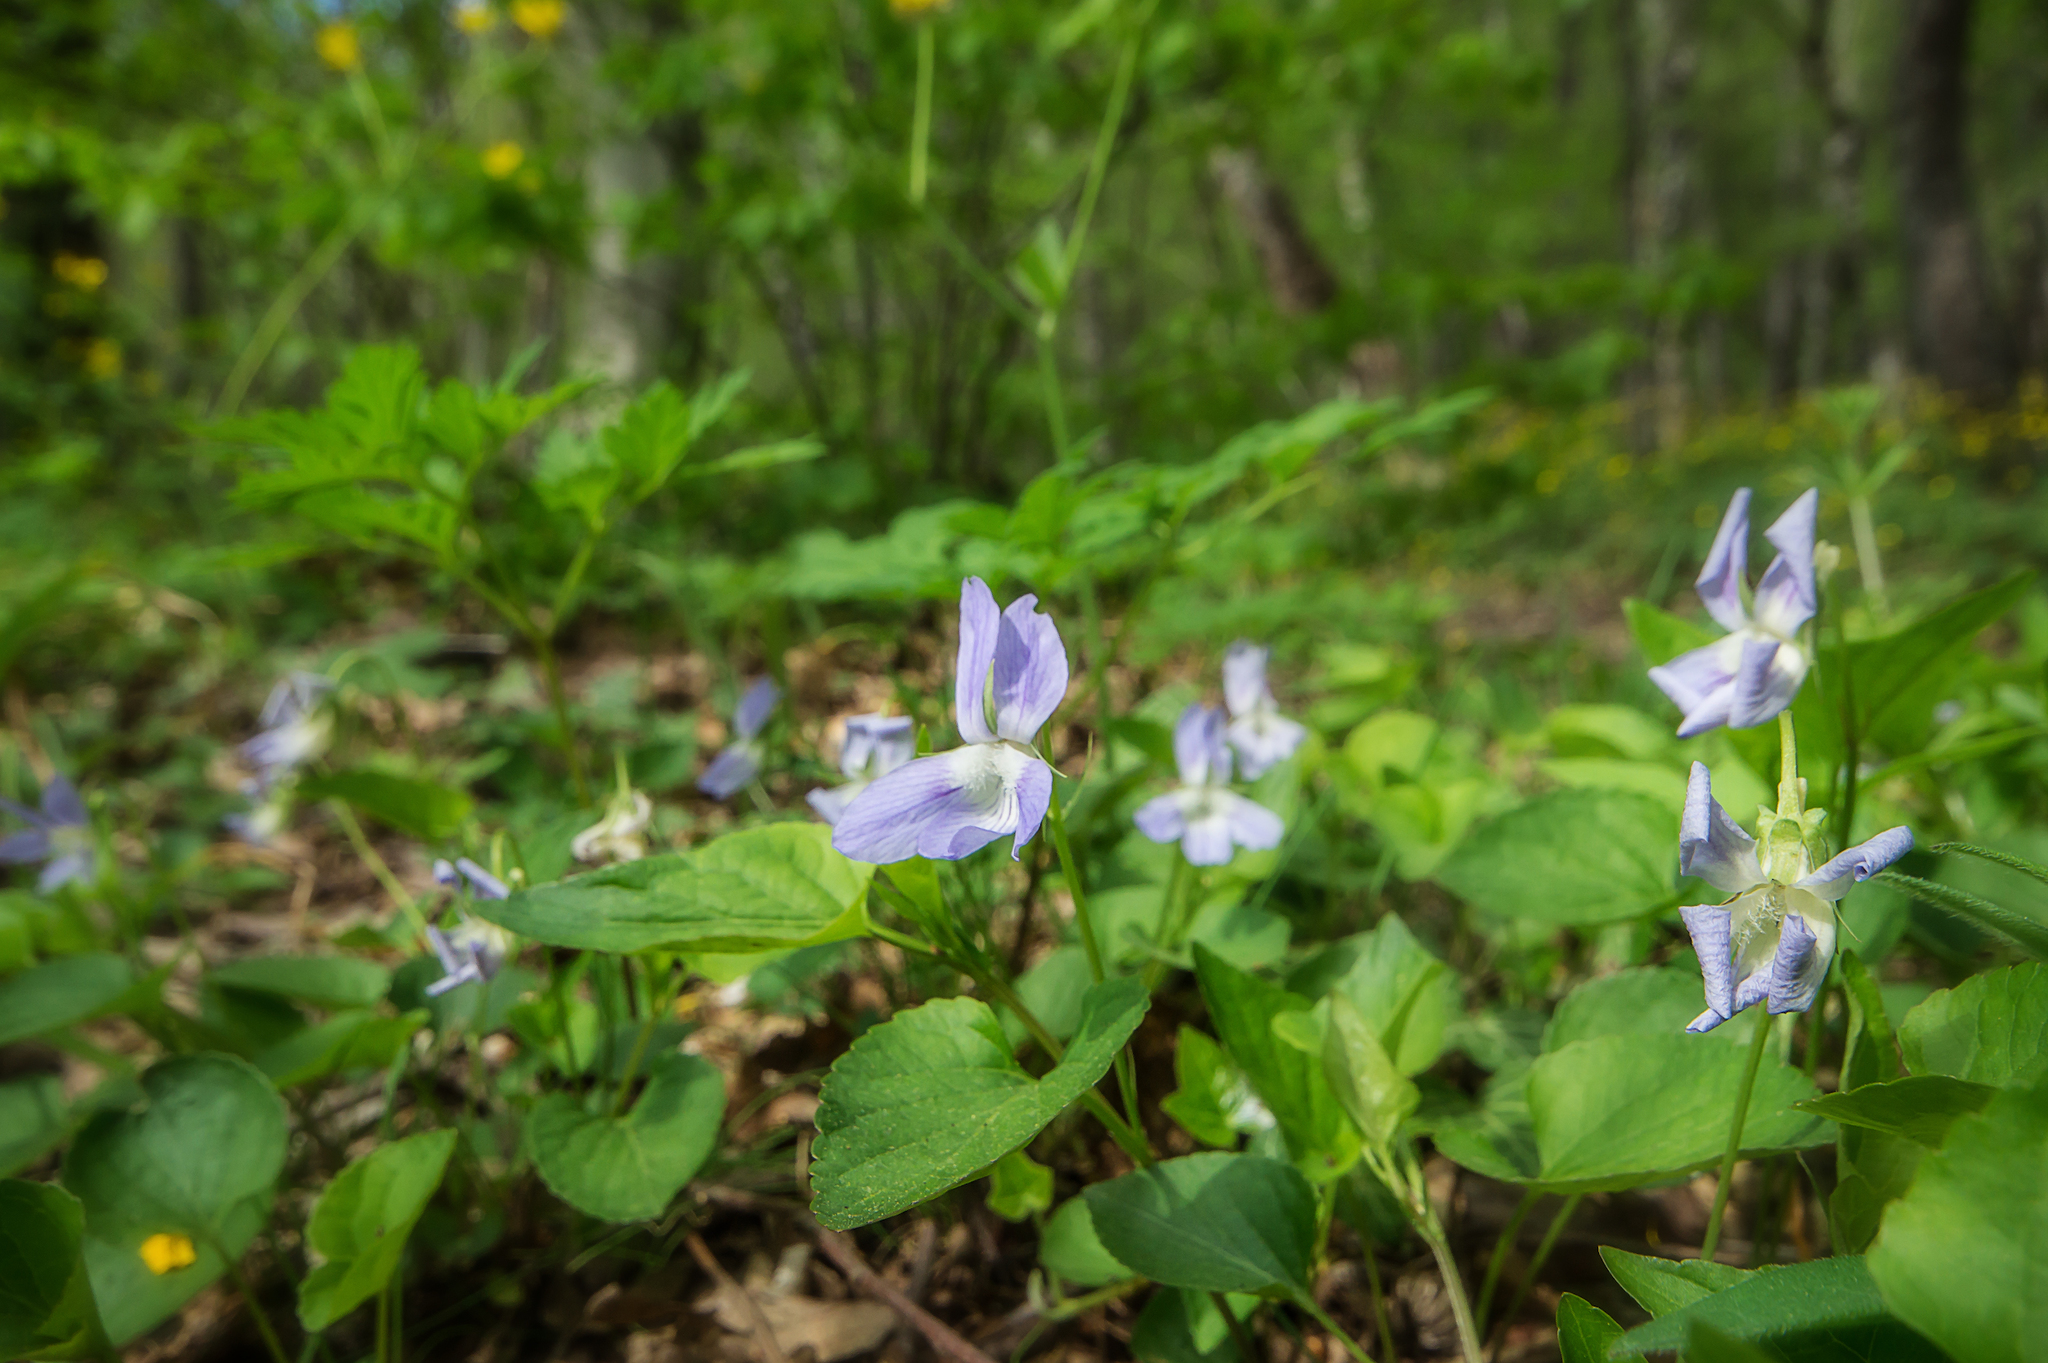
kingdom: Plantae
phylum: Tracheophyta
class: Magnoliopsida
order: Malpighiales
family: Violaceae
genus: Viola
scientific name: Viola sieheana
